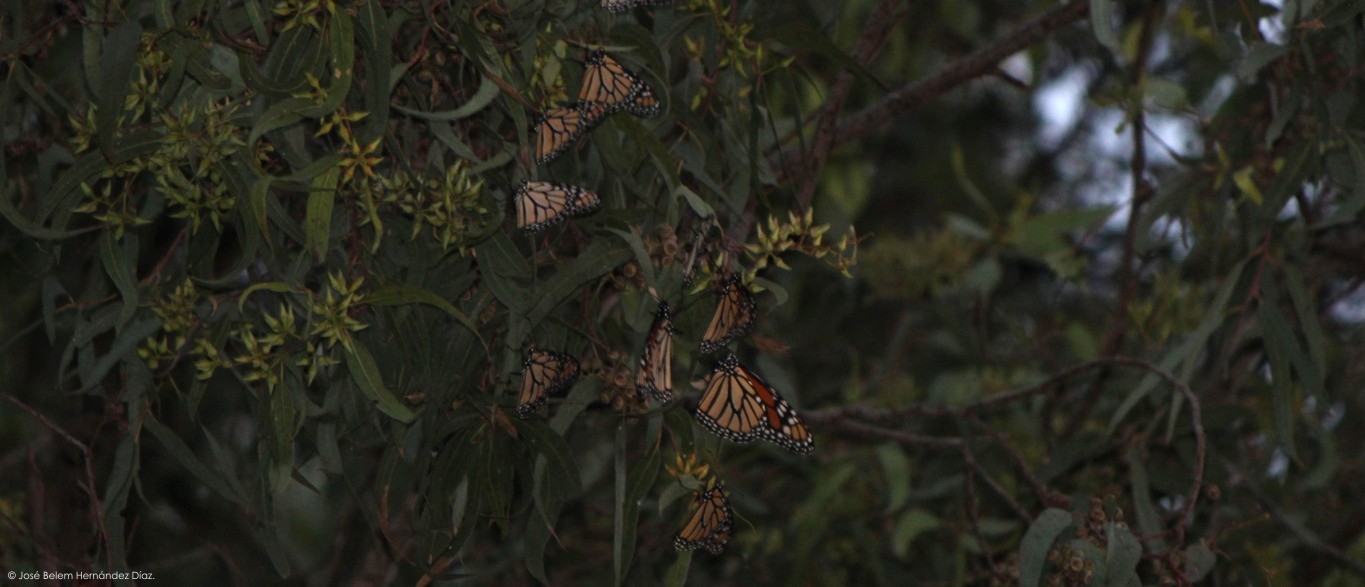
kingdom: Animalia
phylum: Arthropoda
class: Insecta
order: Lepidoptera
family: Nymphalidae
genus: Danaus
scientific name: Danaus plexippus
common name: Monarch
